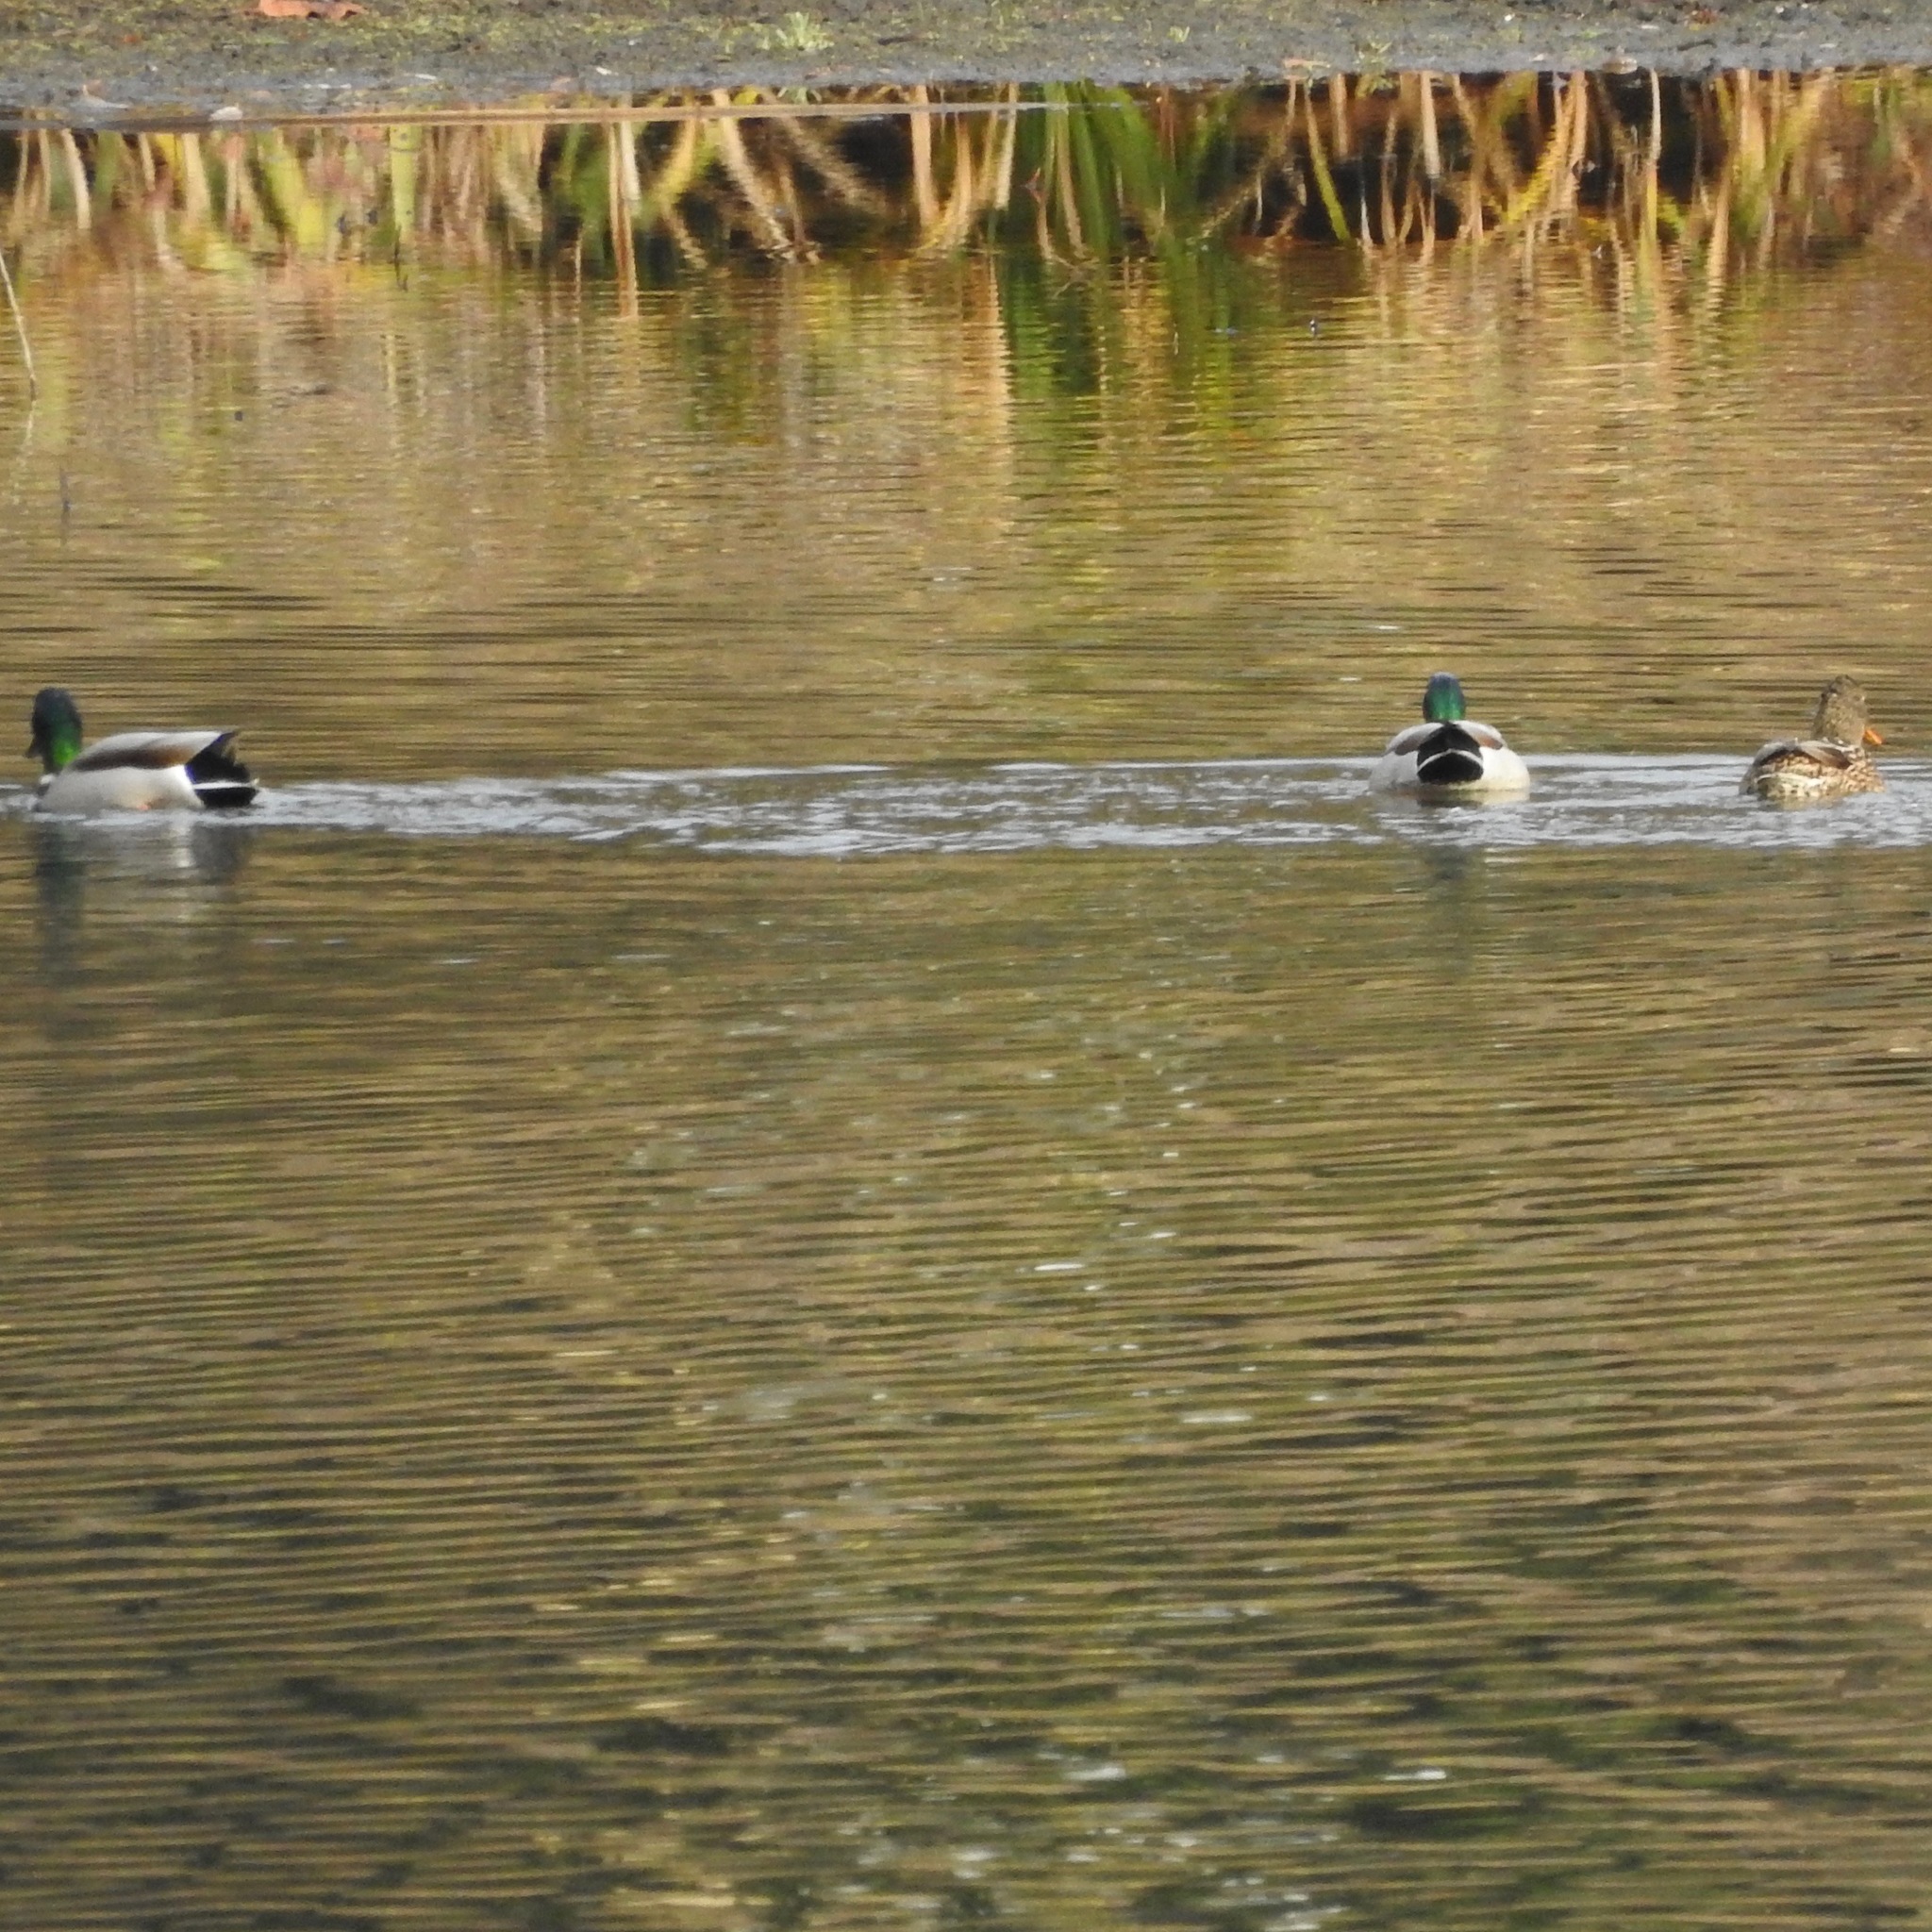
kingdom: Animalia
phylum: Chordata
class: Aves
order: Anseriformes
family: Anatidae
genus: Anas
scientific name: Anas platyrhynchos
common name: Mallard
